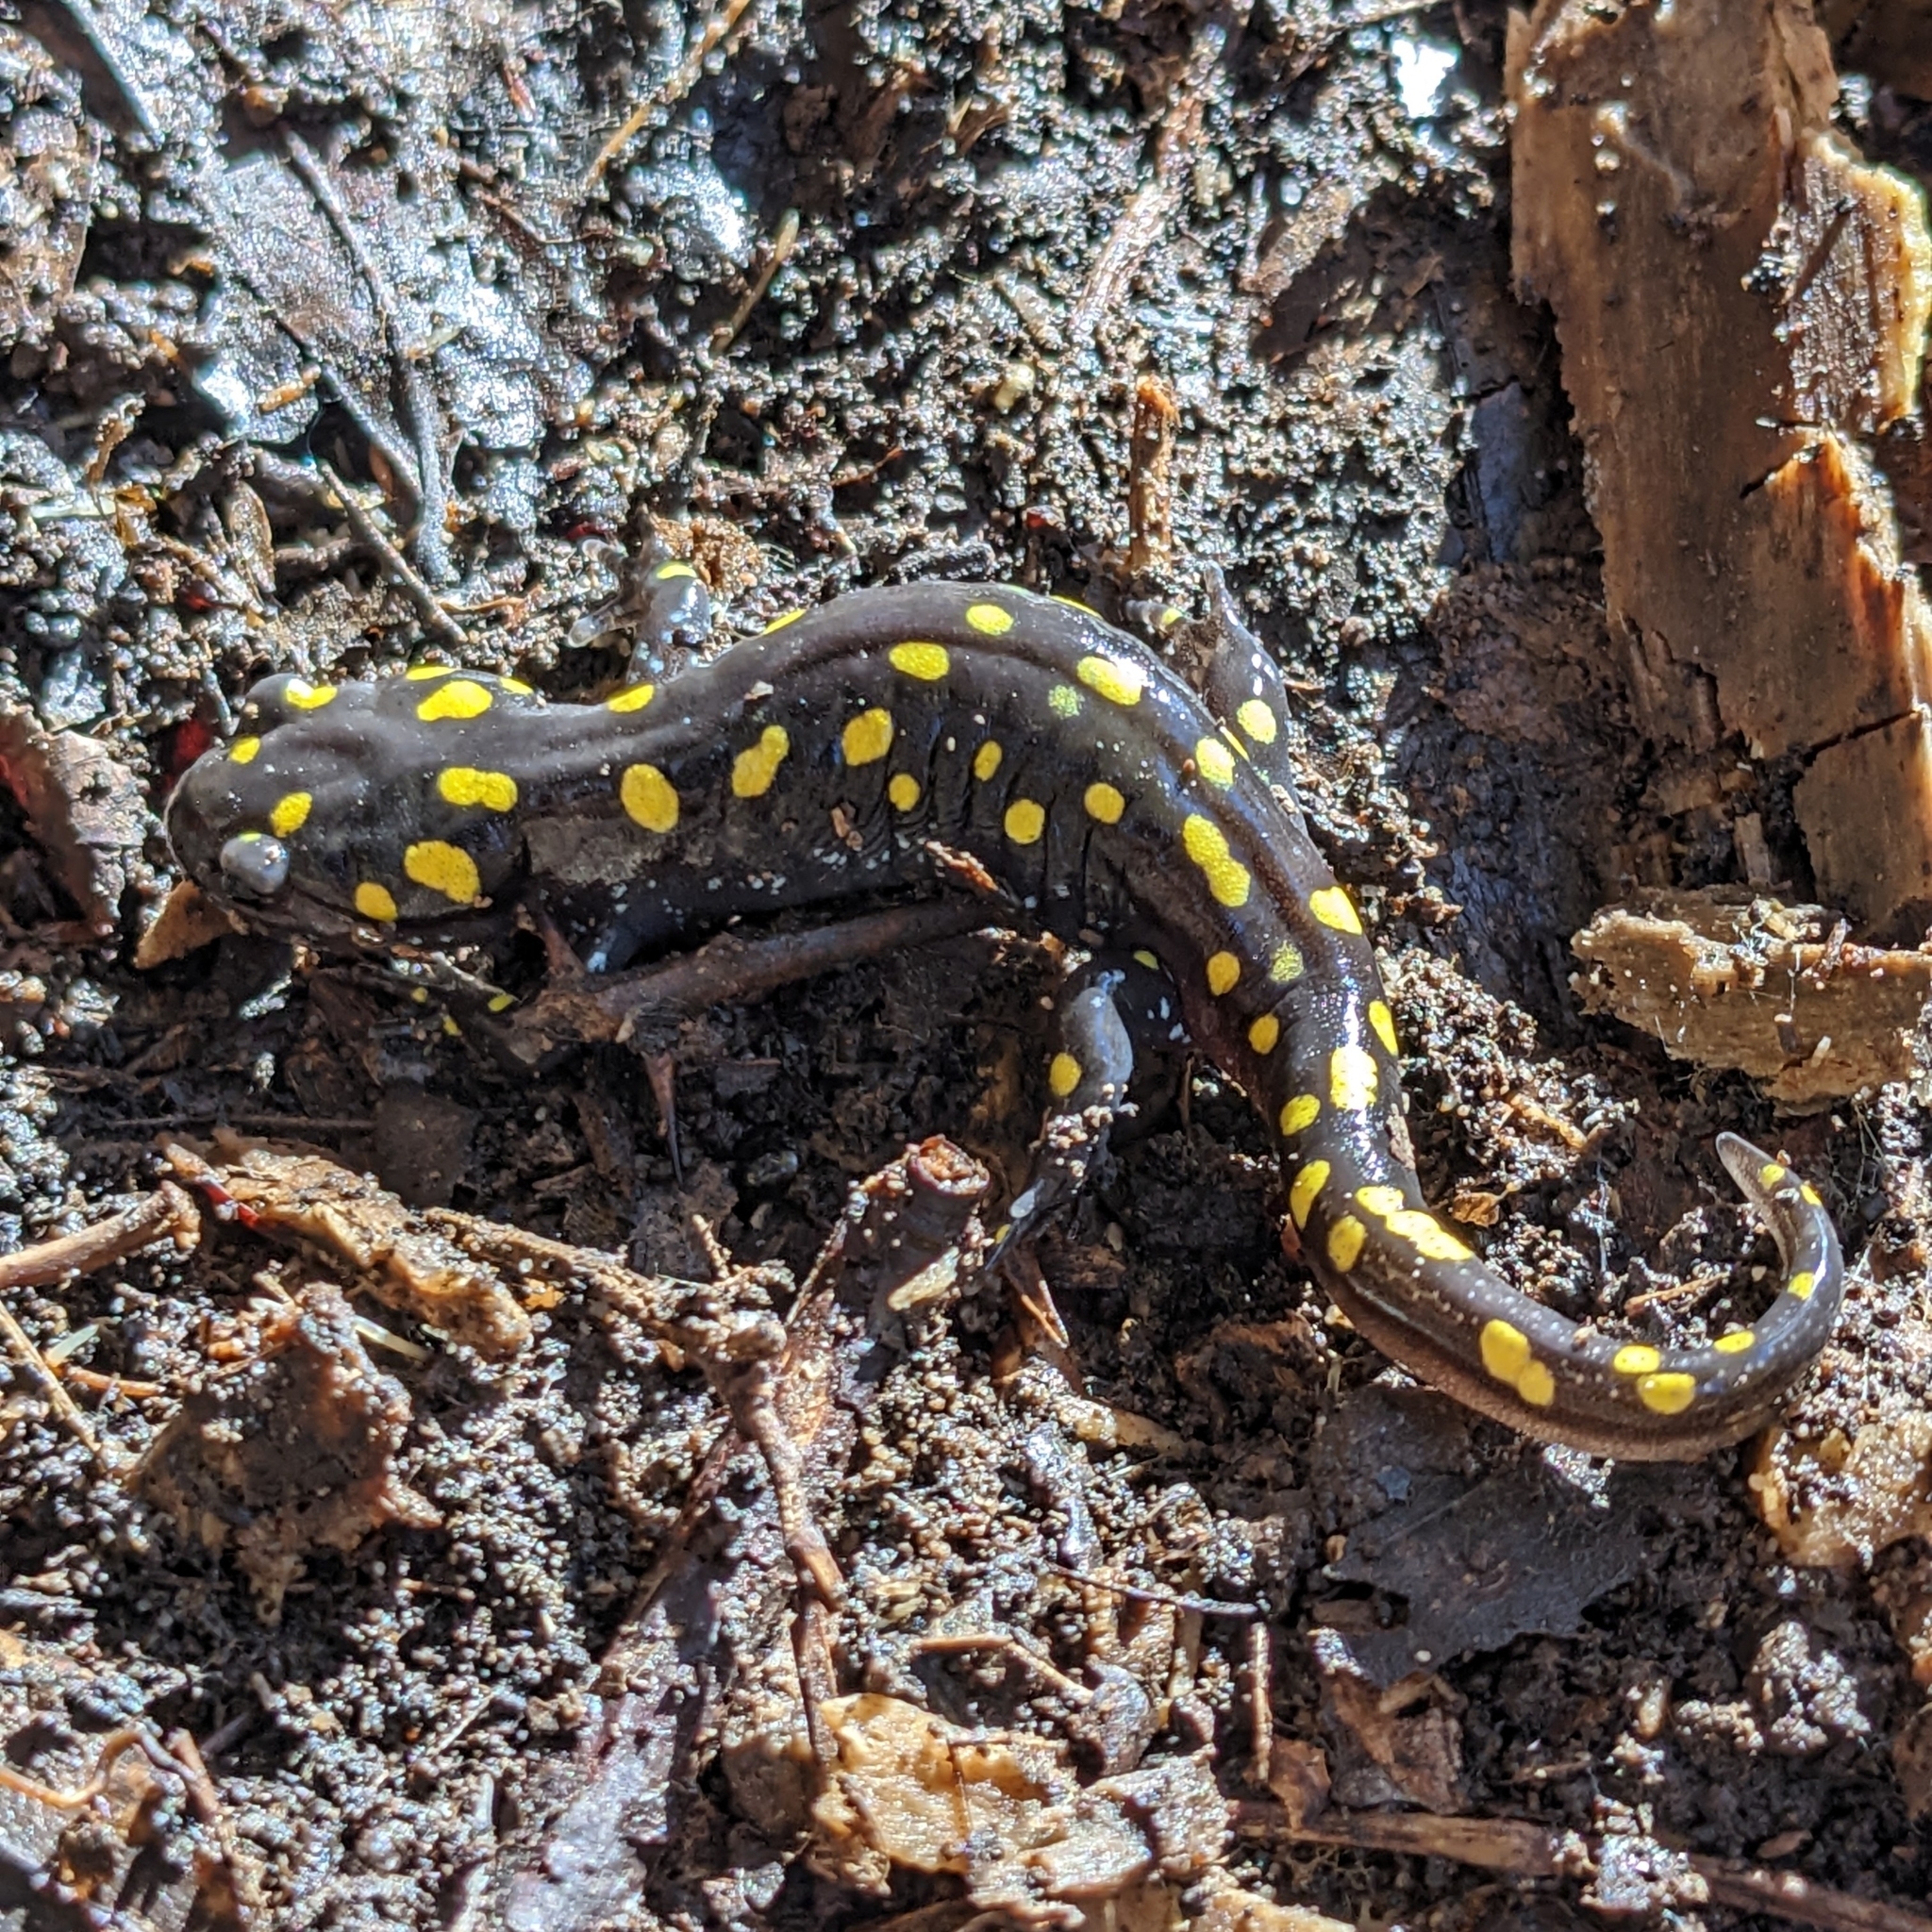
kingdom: Animalia
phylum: Chordata
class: Amphibia
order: Caudata
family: Ambystomatidae
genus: Ambystoma
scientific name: Ambystoma maculatum
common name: Spotted salamander
